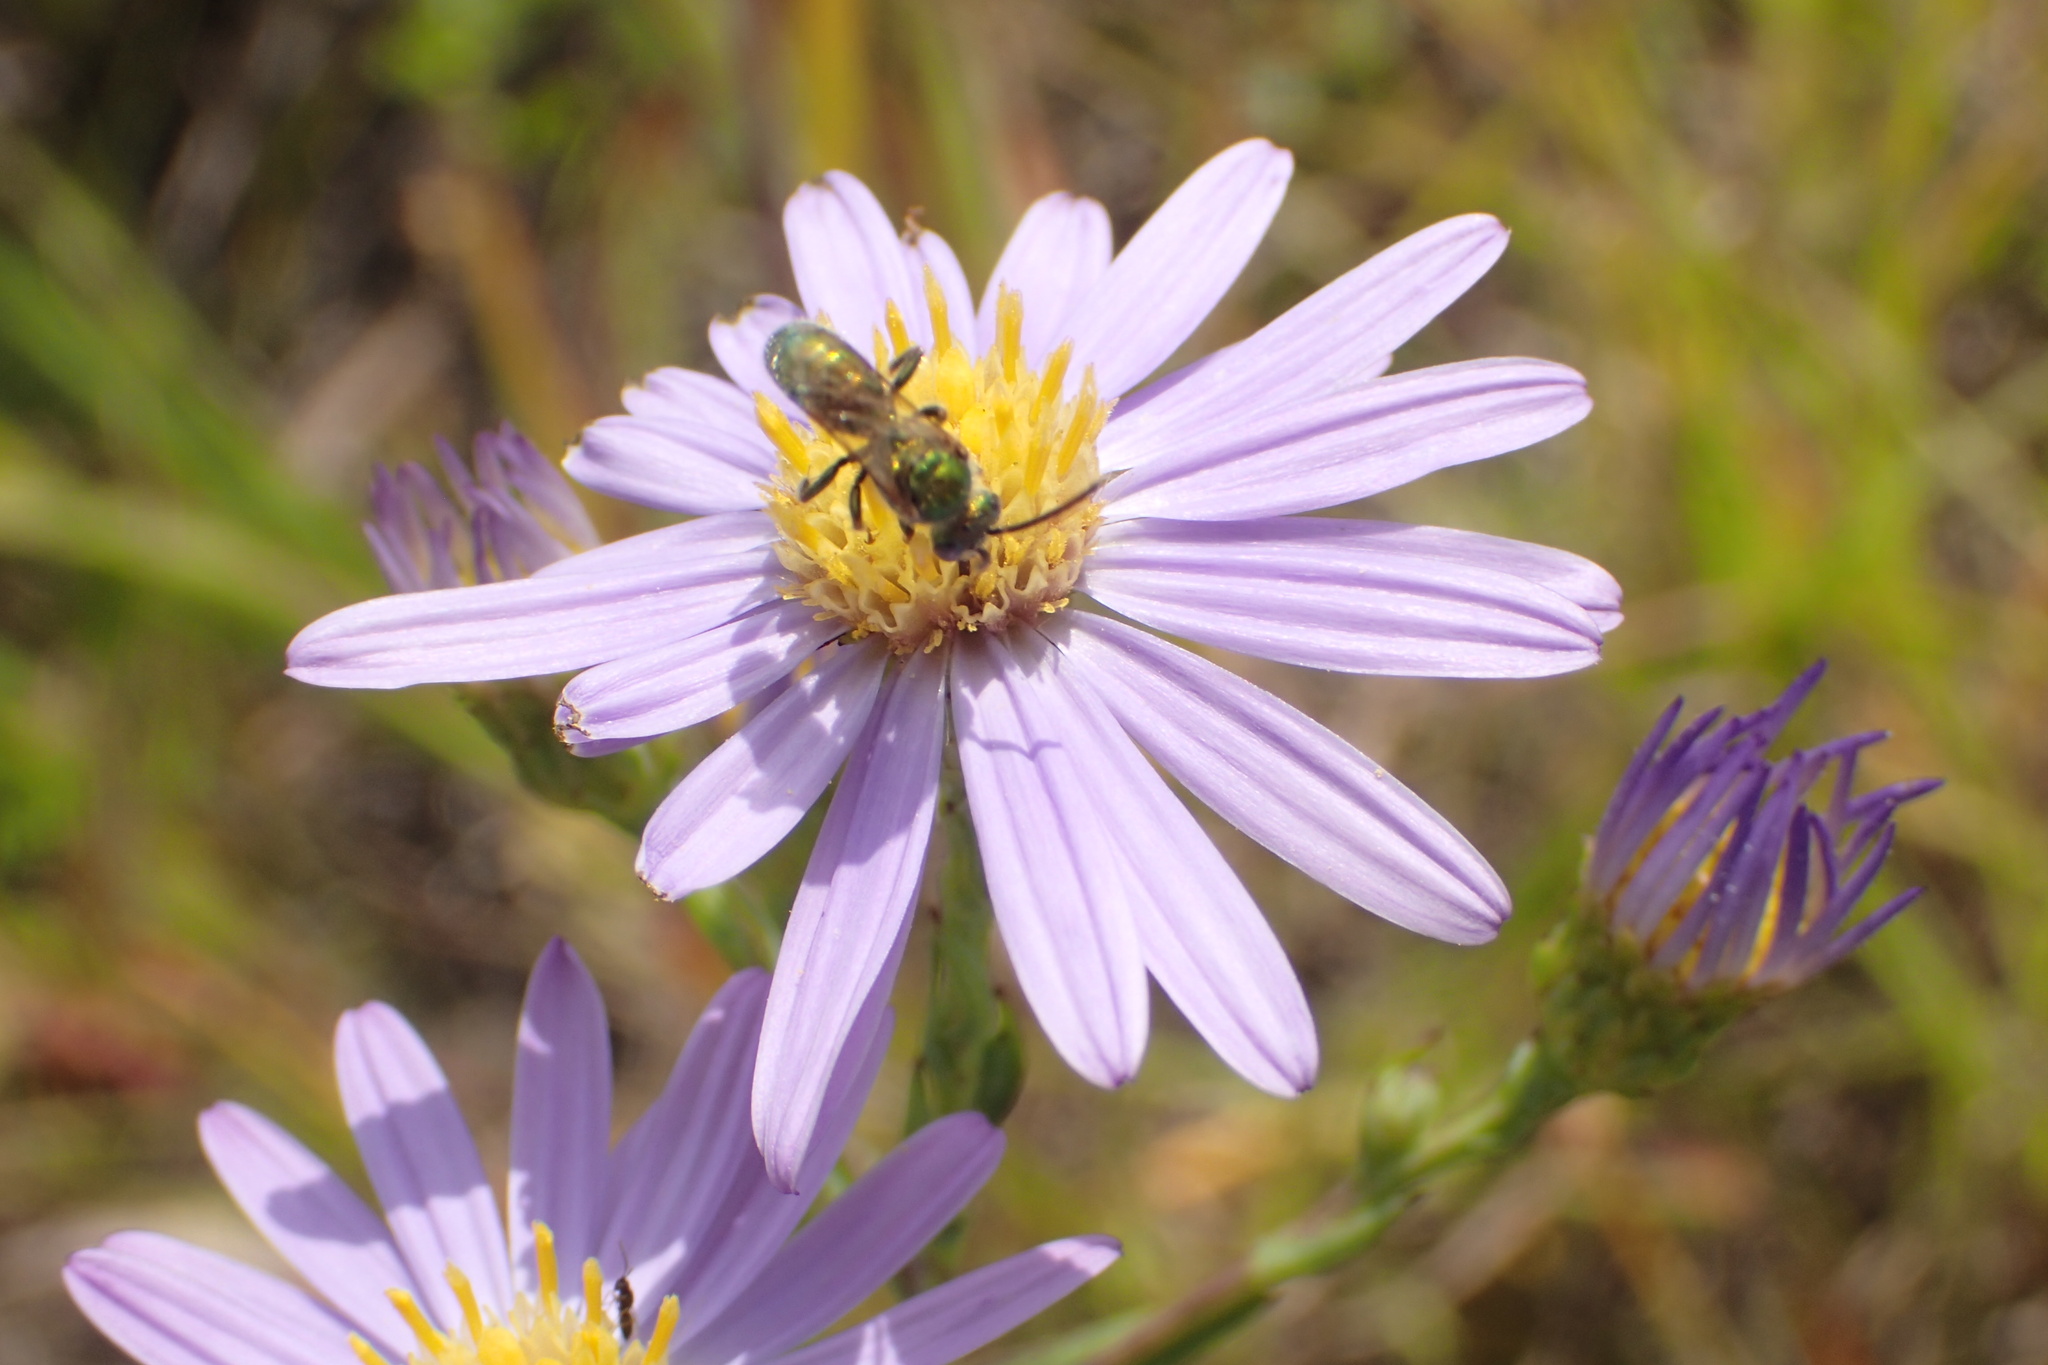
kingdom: Animalia
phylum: Arthropoda
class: Insecta
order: Hymenoptera
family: Halictidae
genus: Augochlorella
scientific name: Augochlorella aurata
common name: Golden sweat bee
